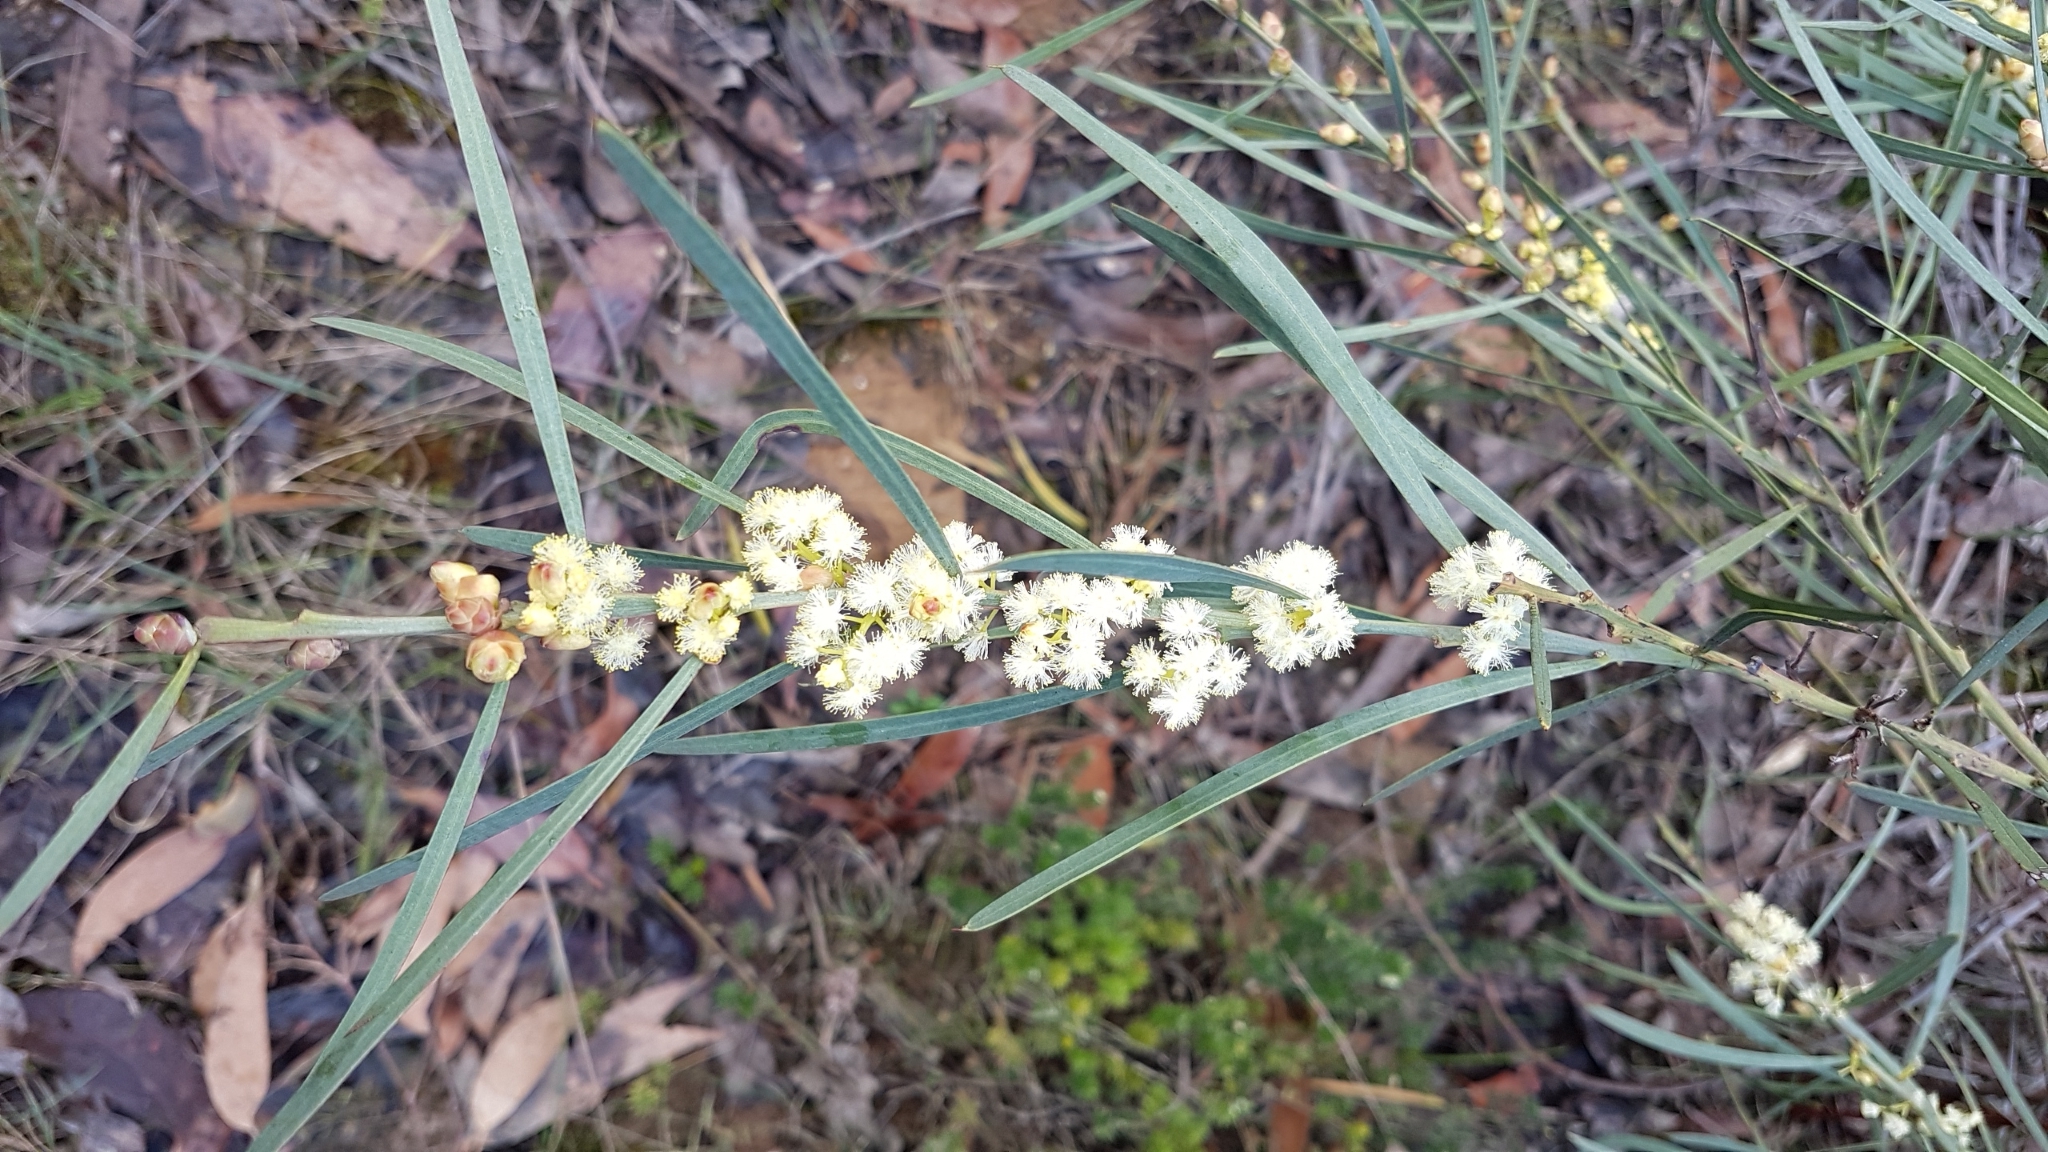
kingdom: Plantae
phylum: Tracheophyta
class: Magnoliopsida
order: Fabales
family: Fabaceae
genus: Acacia
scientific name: Acacia suaveolens
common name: Sweet acacia
